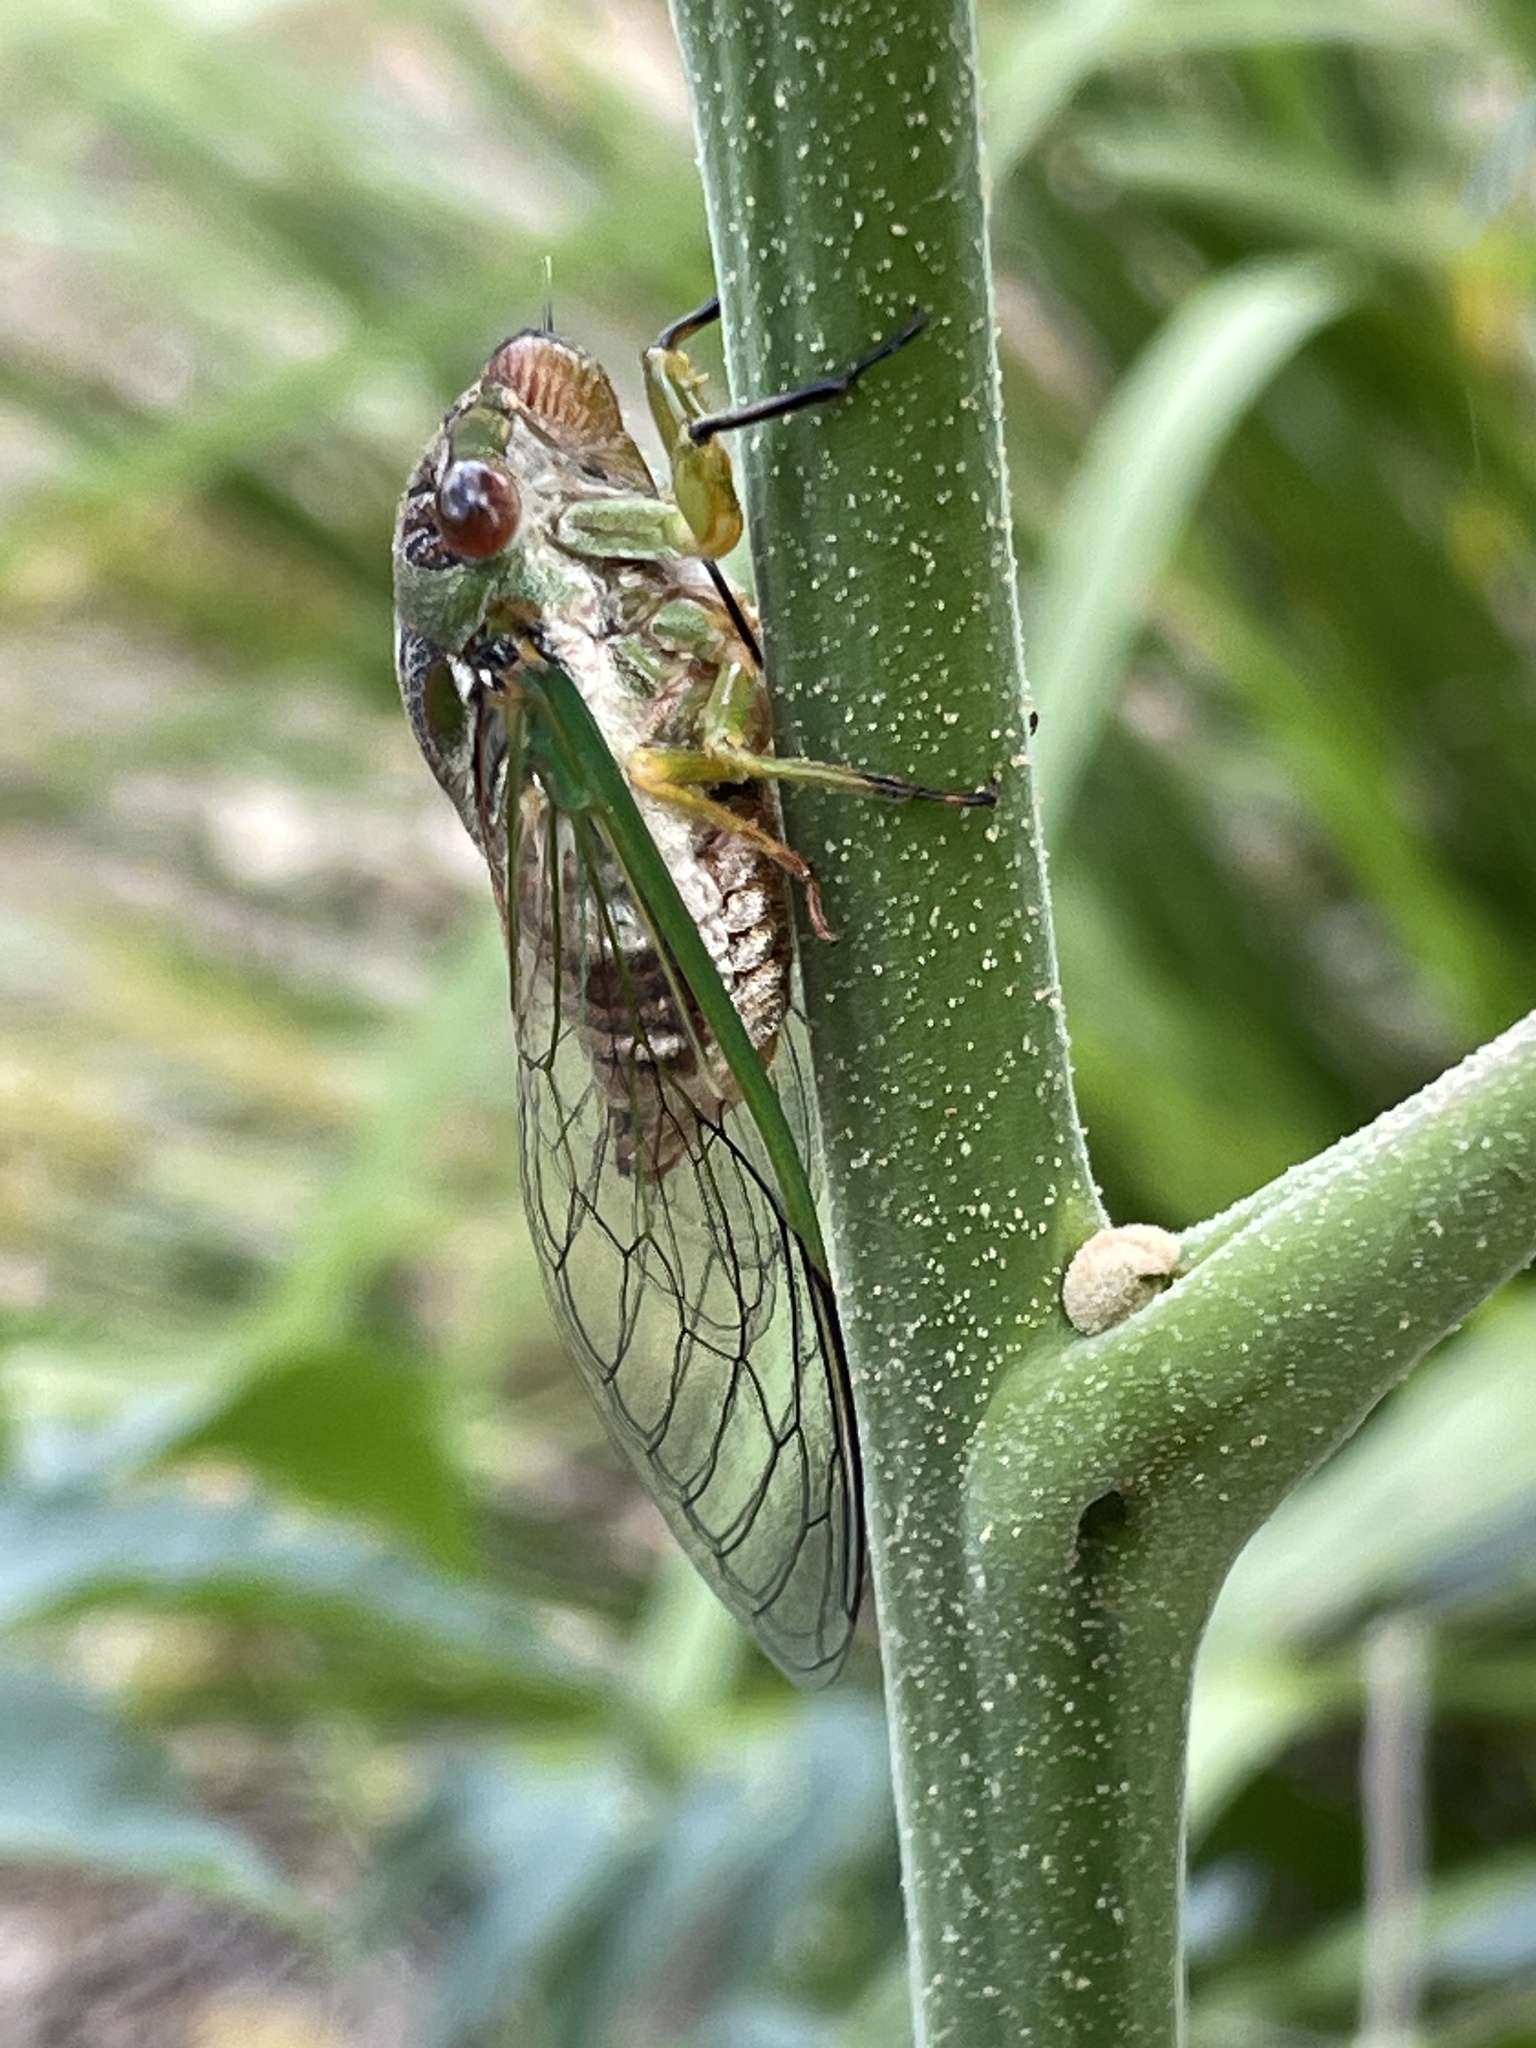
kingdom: Animalia
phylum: Arthropoda
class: Insecta
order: Hemiptera
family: Cicadidae
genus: Psaltoda
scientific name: Psaltoda claripennis
